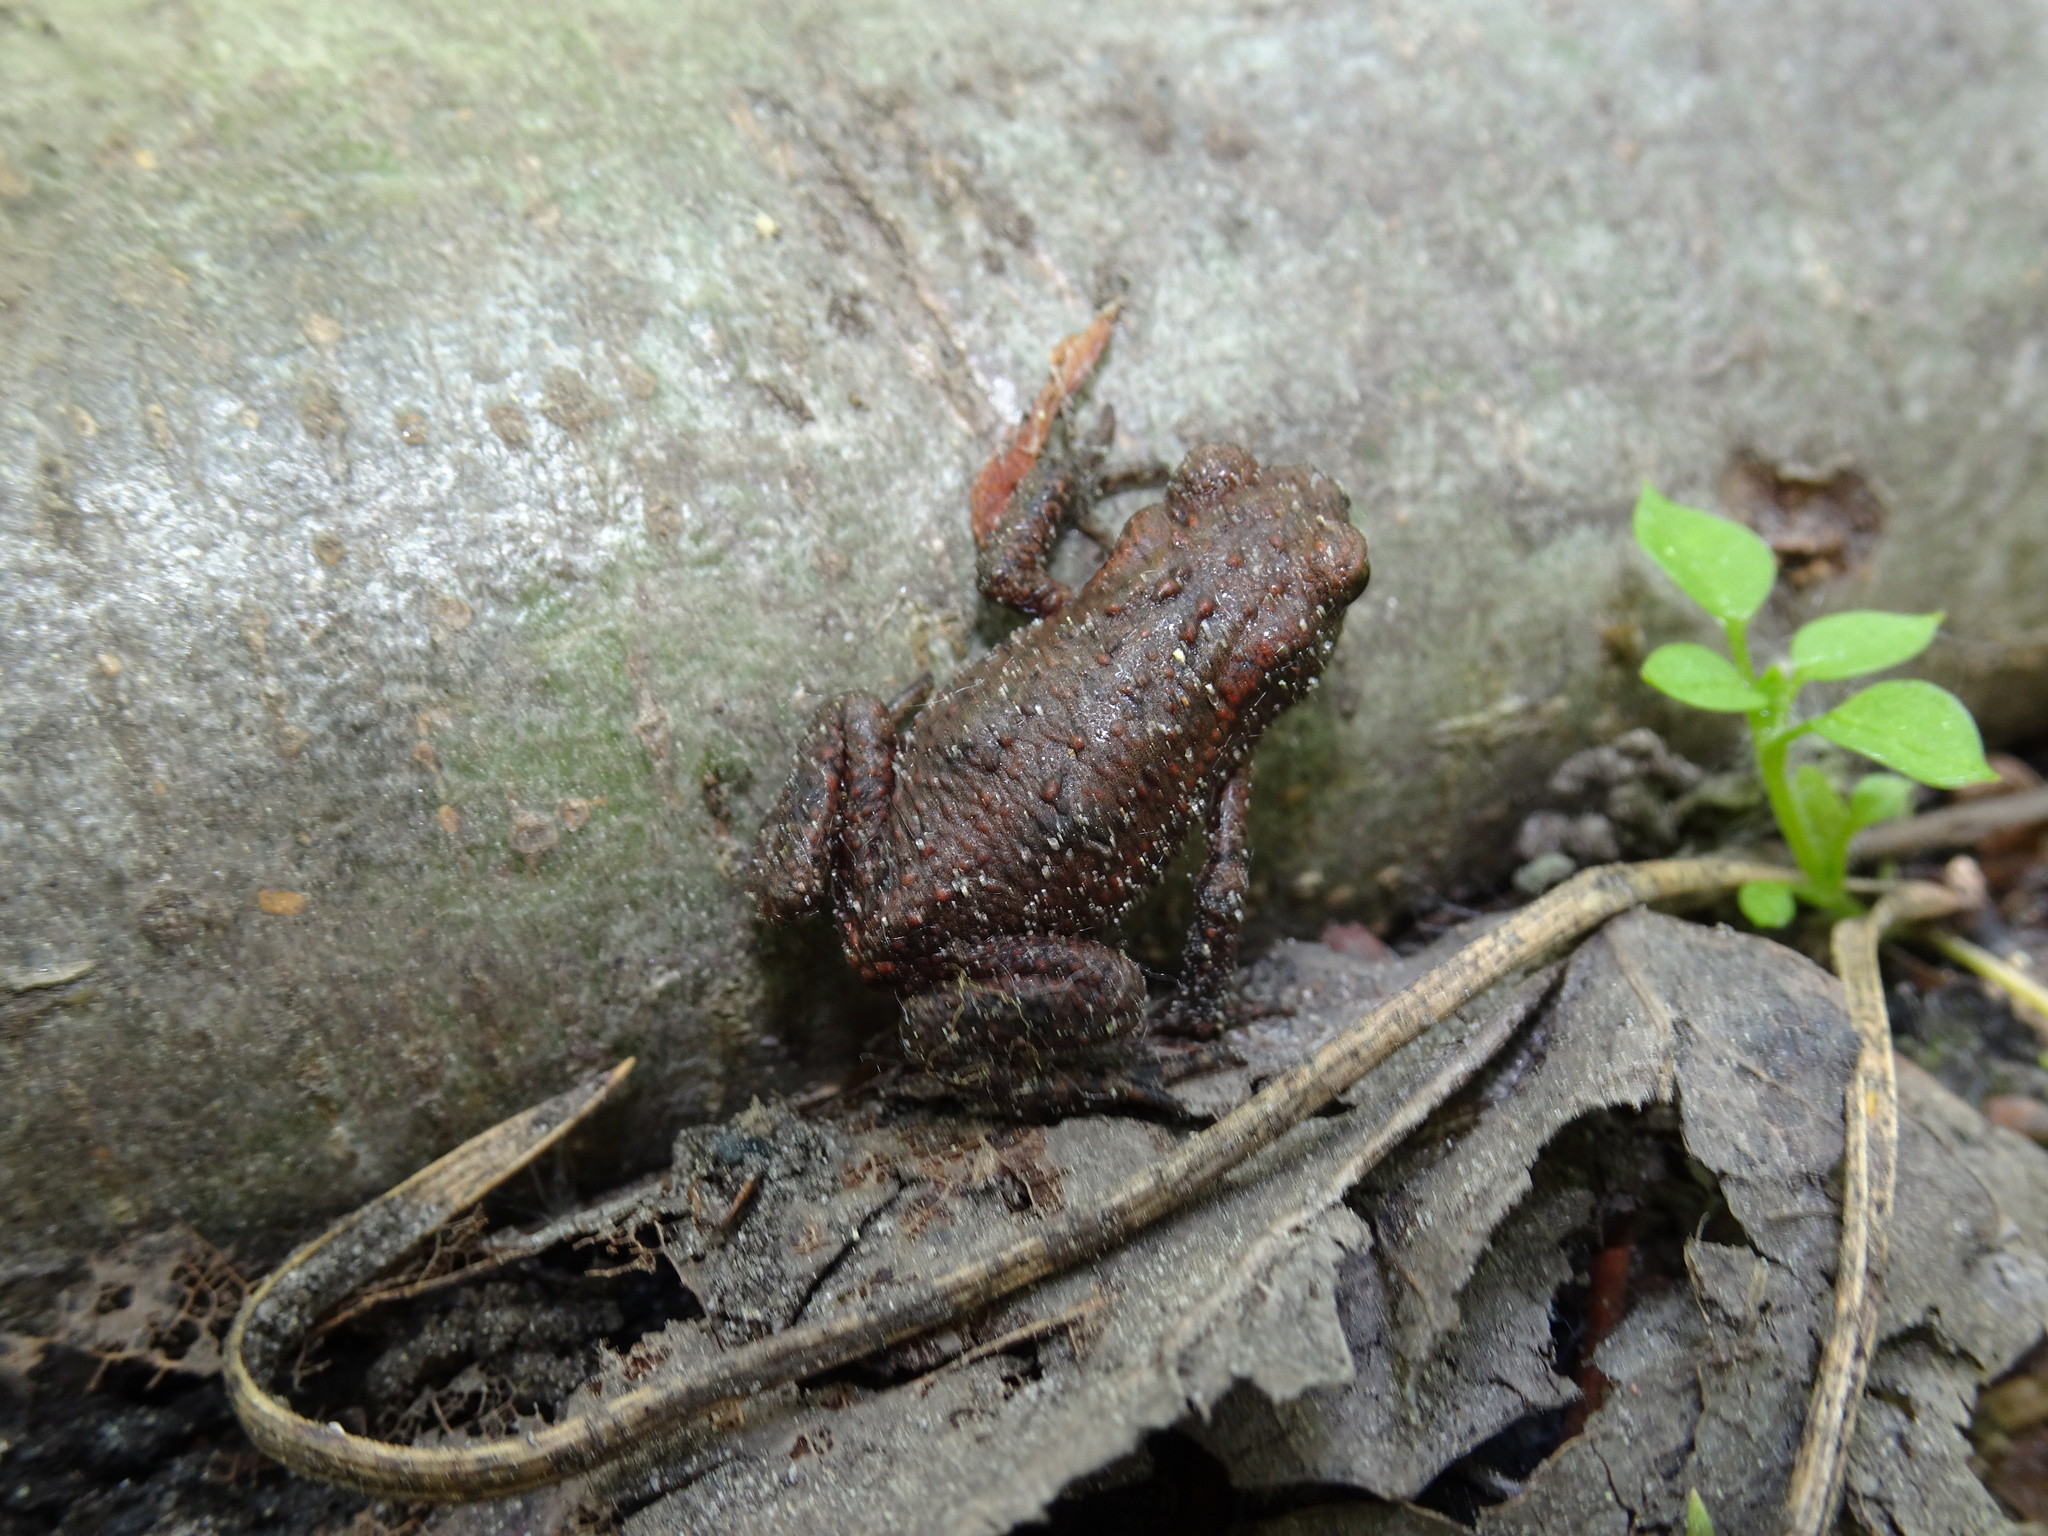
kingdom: Animalia
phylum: Chordata
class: Amphibia
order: Anura
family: Bufonidae
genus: Bufo
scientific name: Bufo bufo
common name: Common toad
